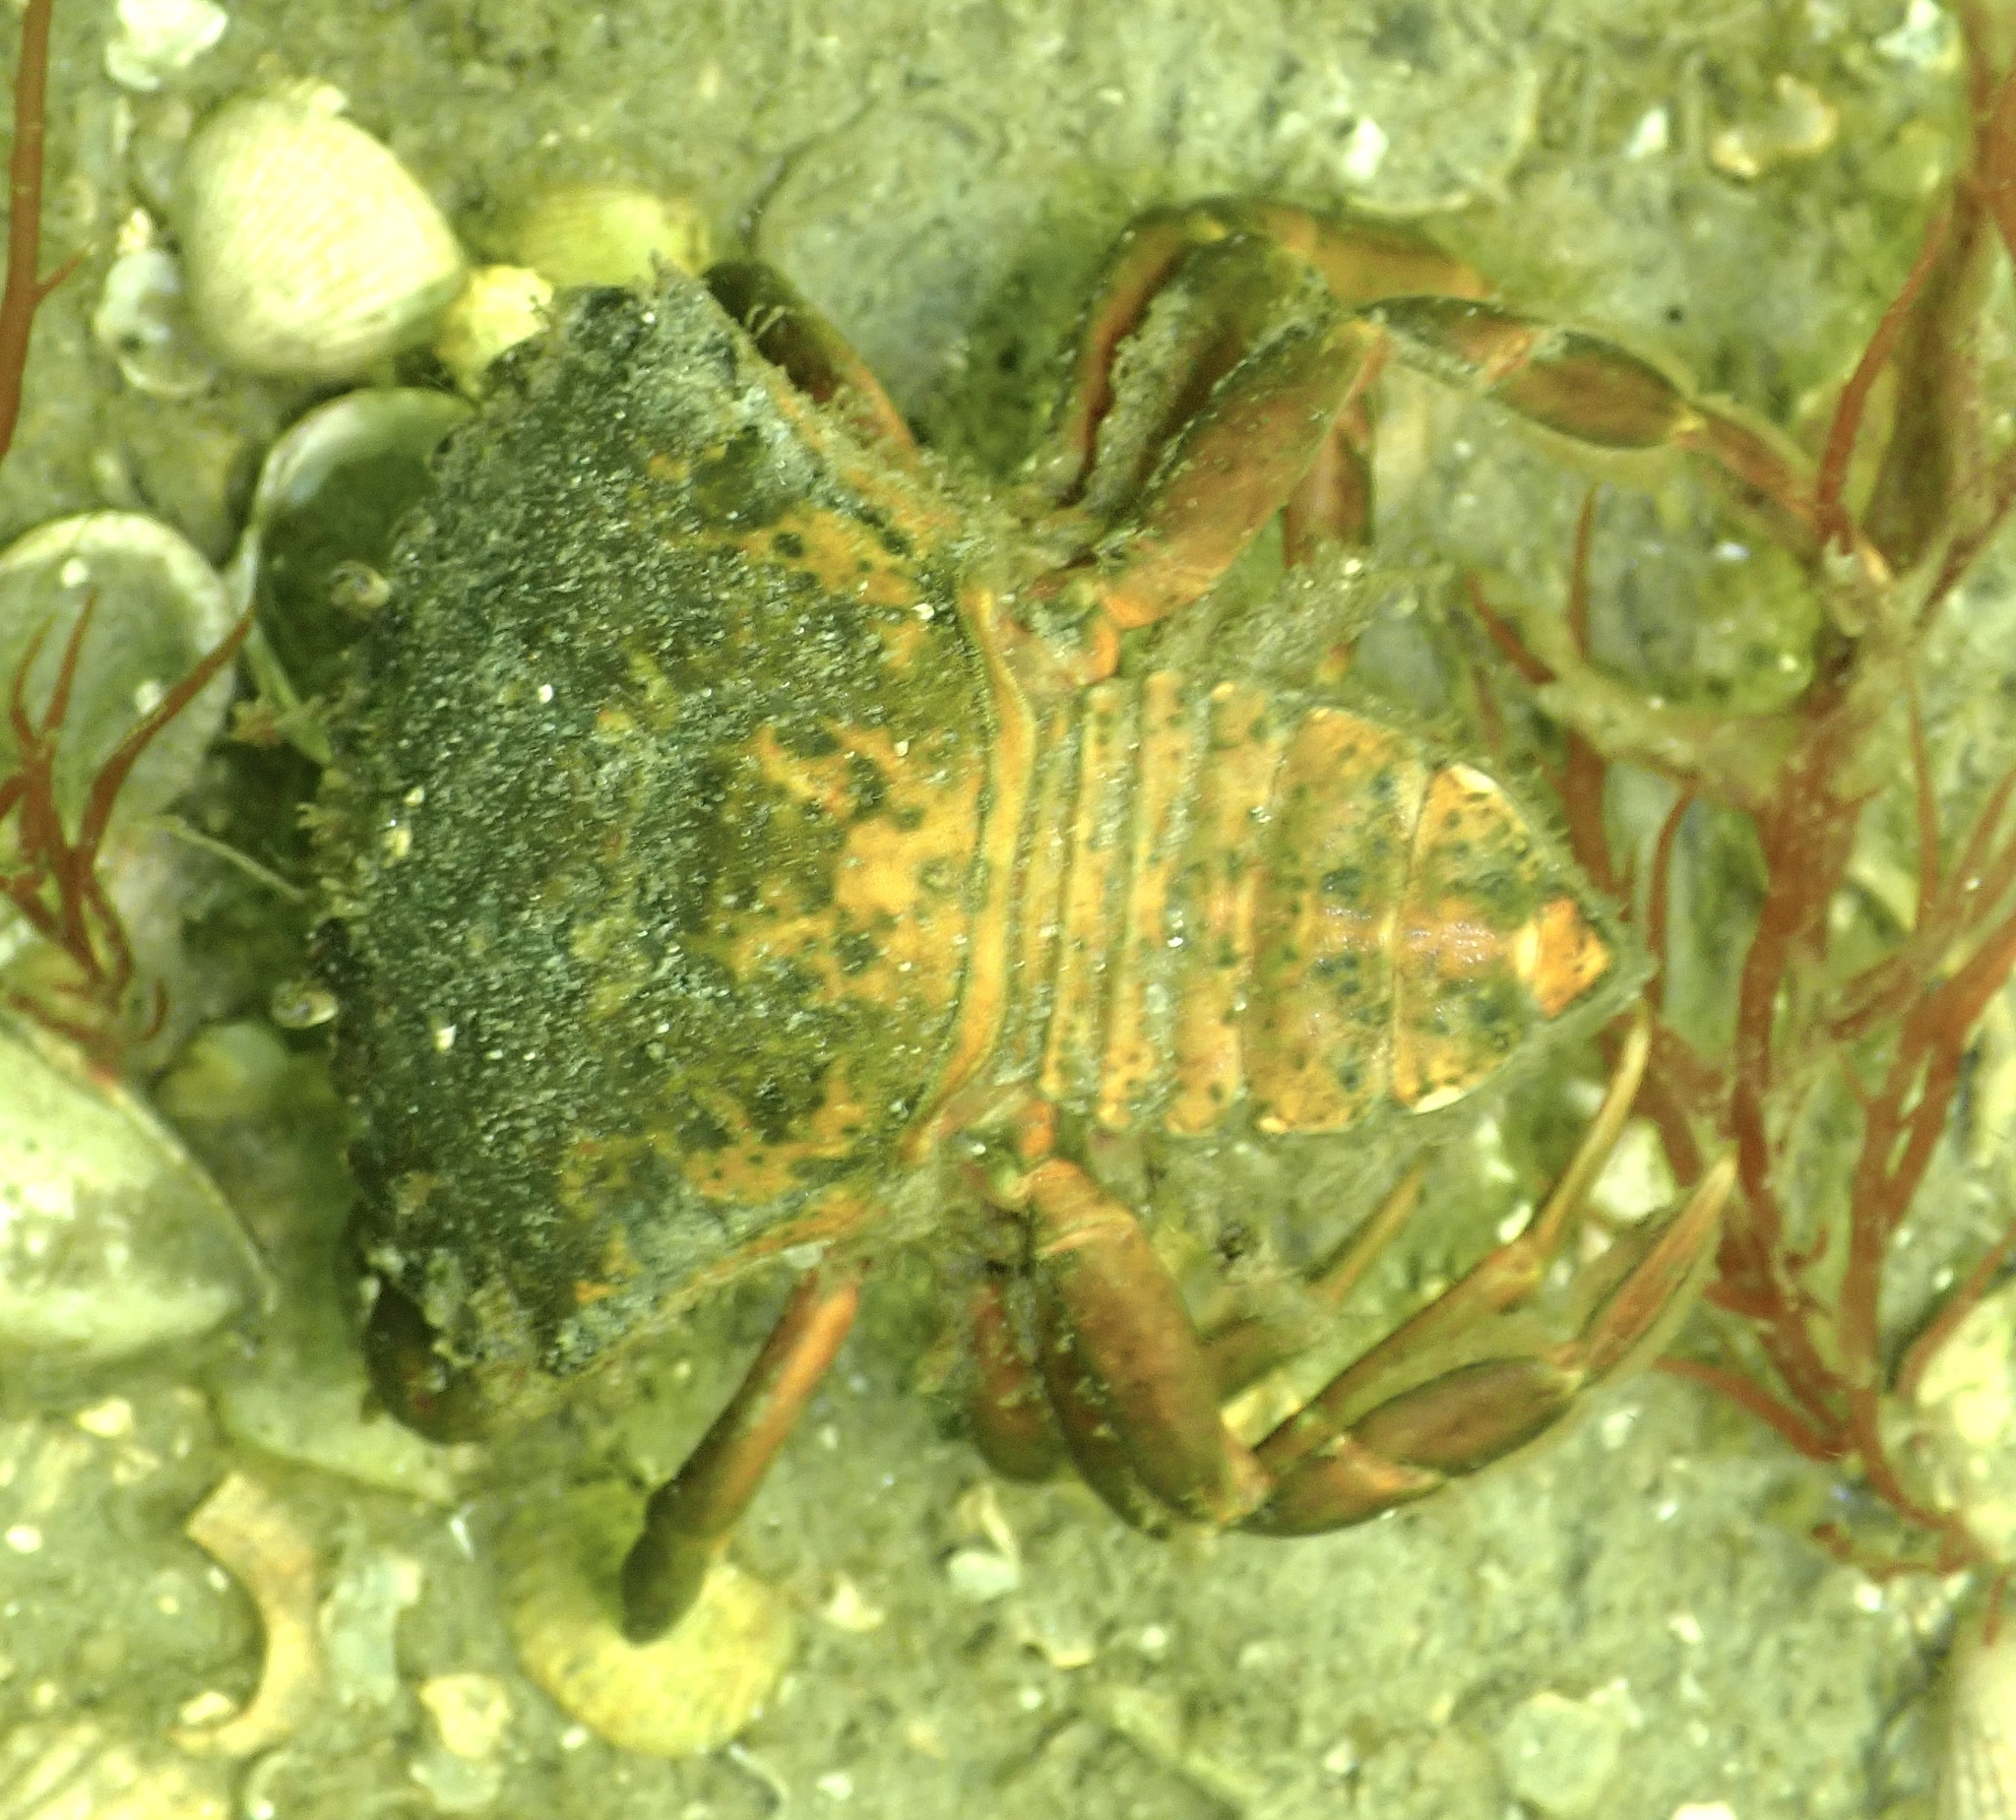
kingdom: Animalia
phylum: Arthropoda
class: Malacostraca
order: Decapoda
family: Carcinidae
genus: Carcinus
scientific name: Carcinus maenas
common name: European green crab
